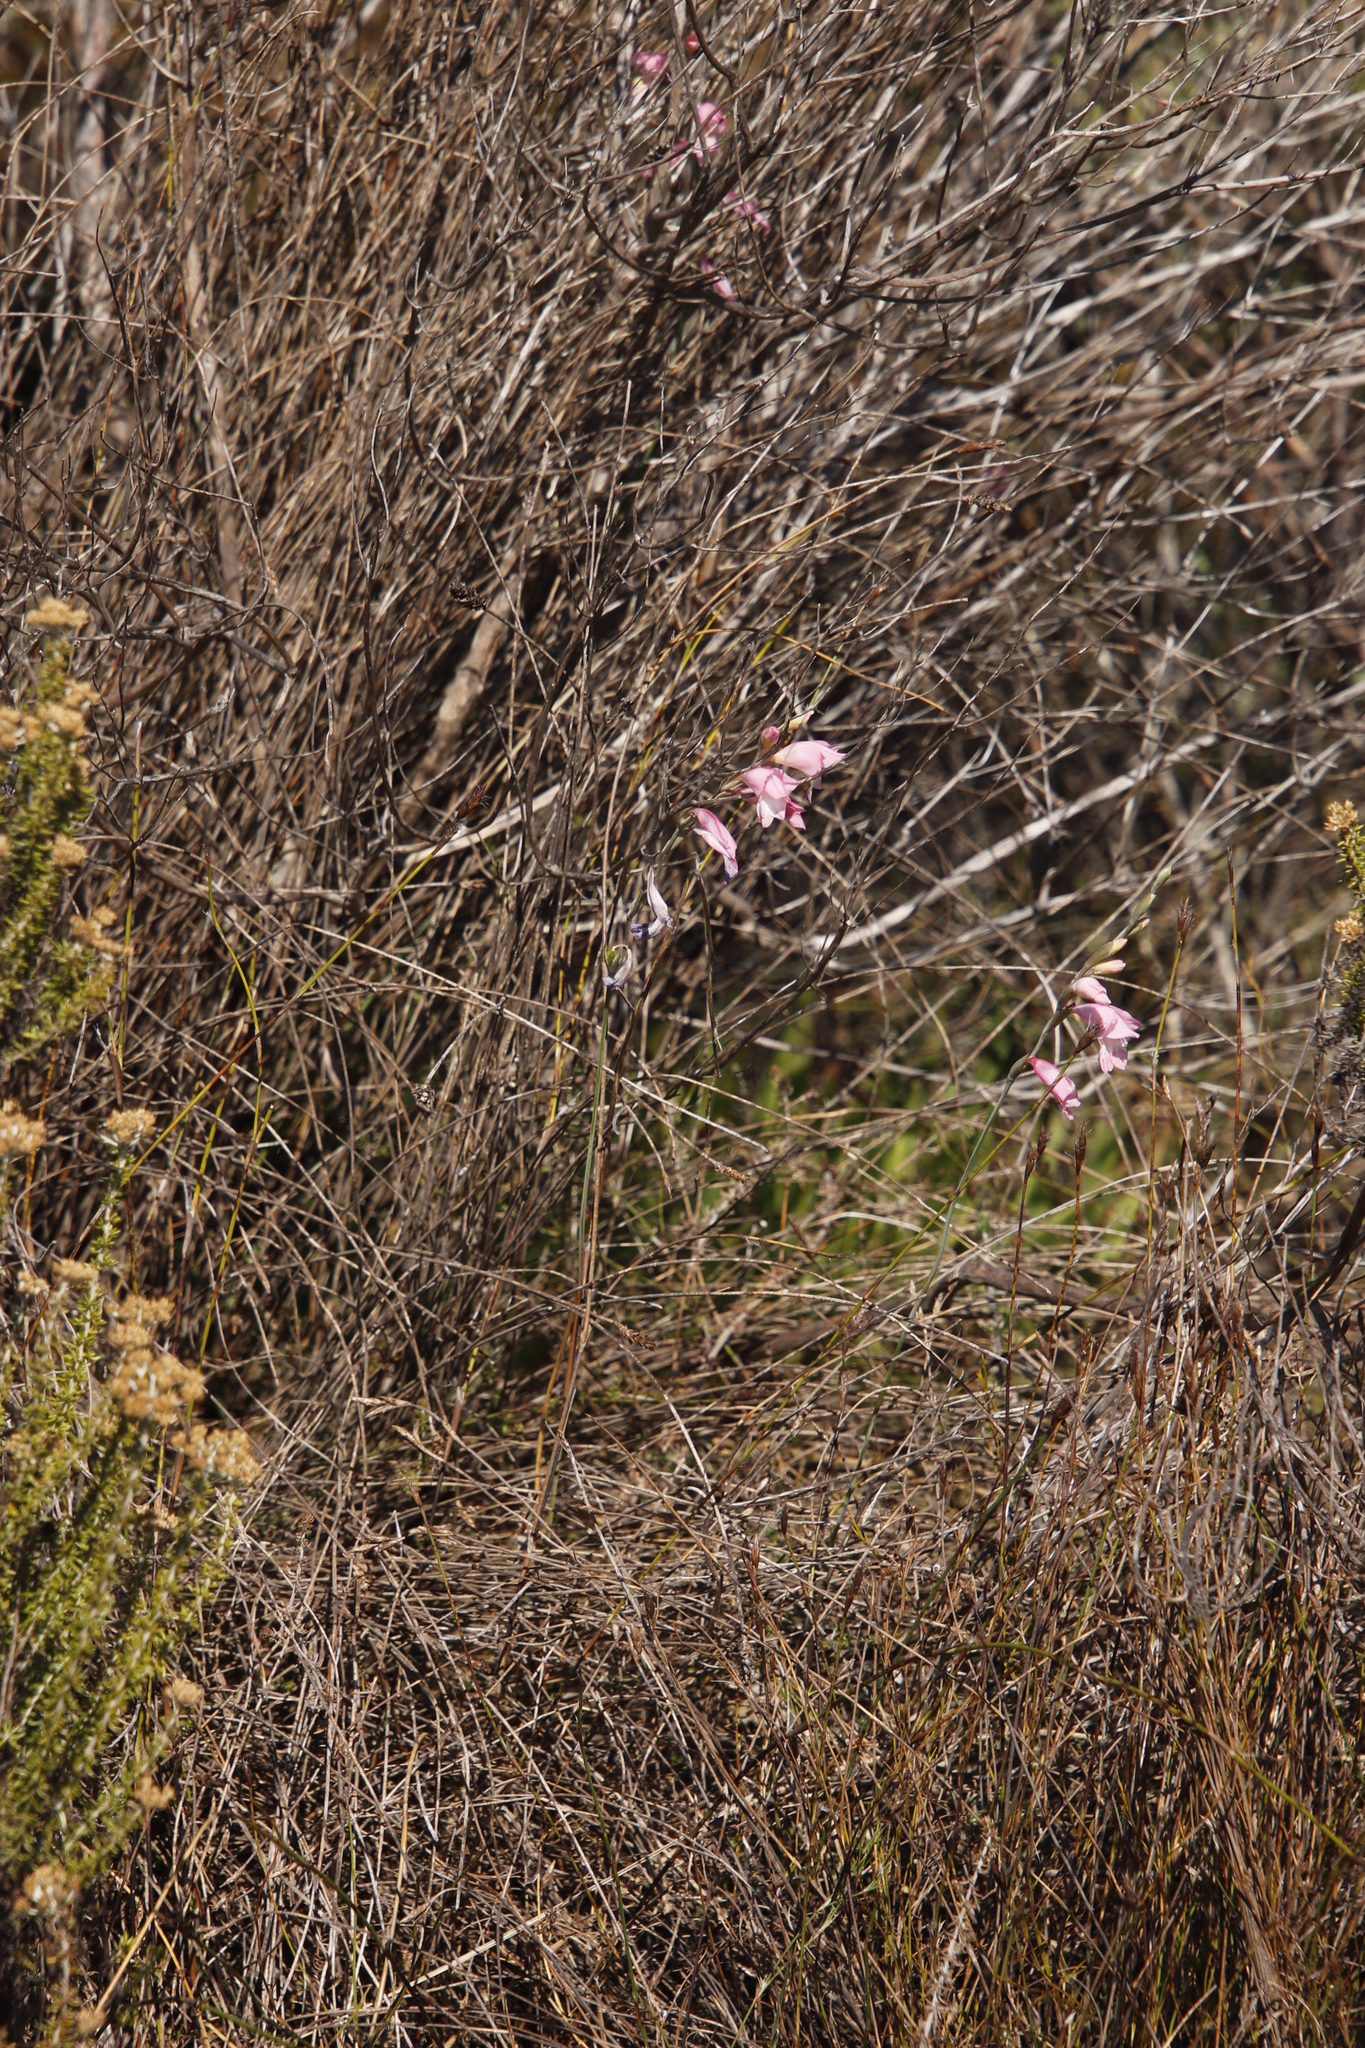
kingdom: Plantae
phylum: Tracheophyta
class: Liliopsida
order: Asparagales
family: Iridaceae
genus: Gladiolus
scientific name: Gladiolus brevifolius
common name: March pypie
